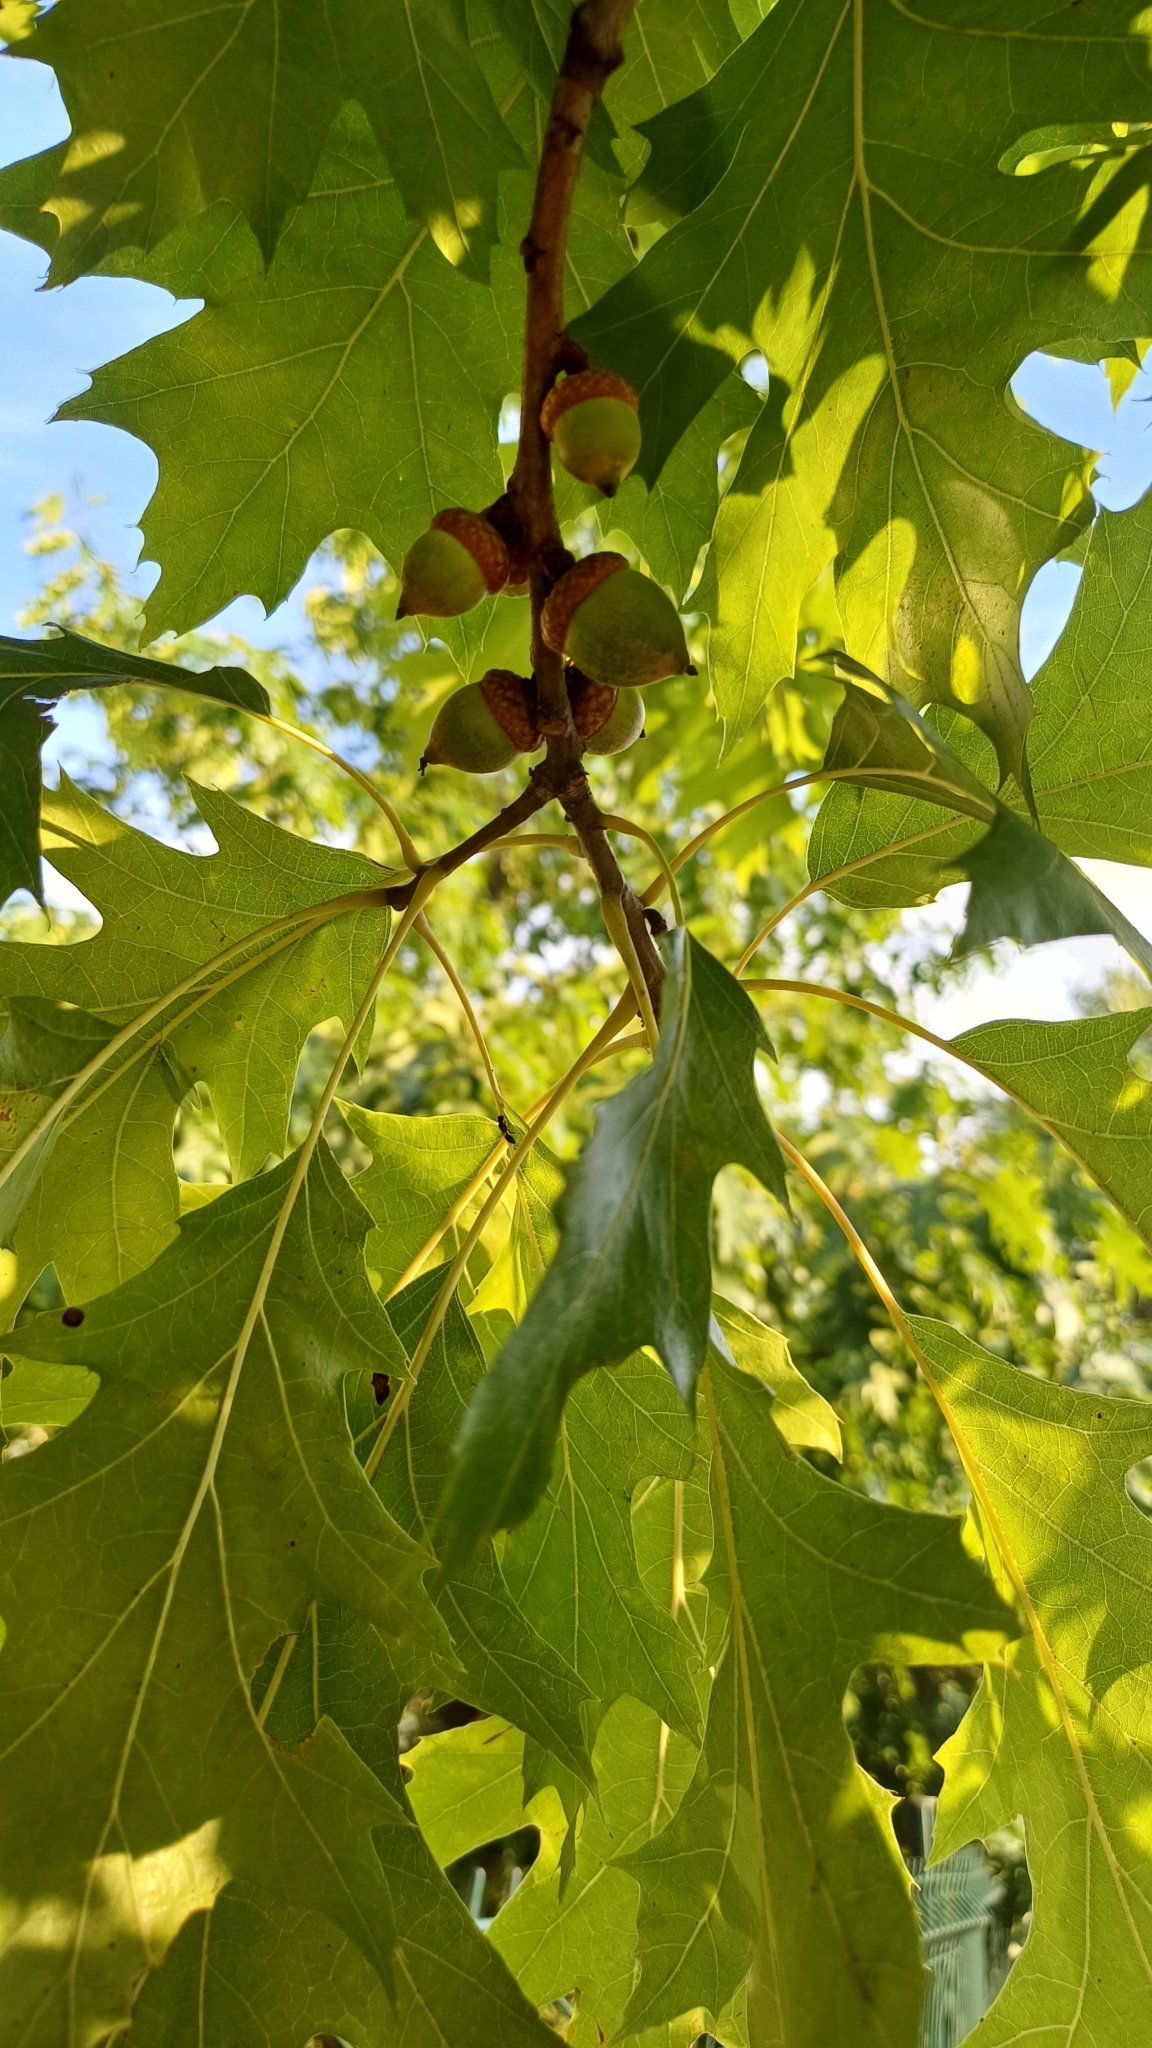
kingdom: Plantae
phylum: Tracheophyta
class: Magnoliopsida
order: Fagales
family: Fagaceae
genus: Quercus
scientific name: Quercus rubra
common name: Red oak
